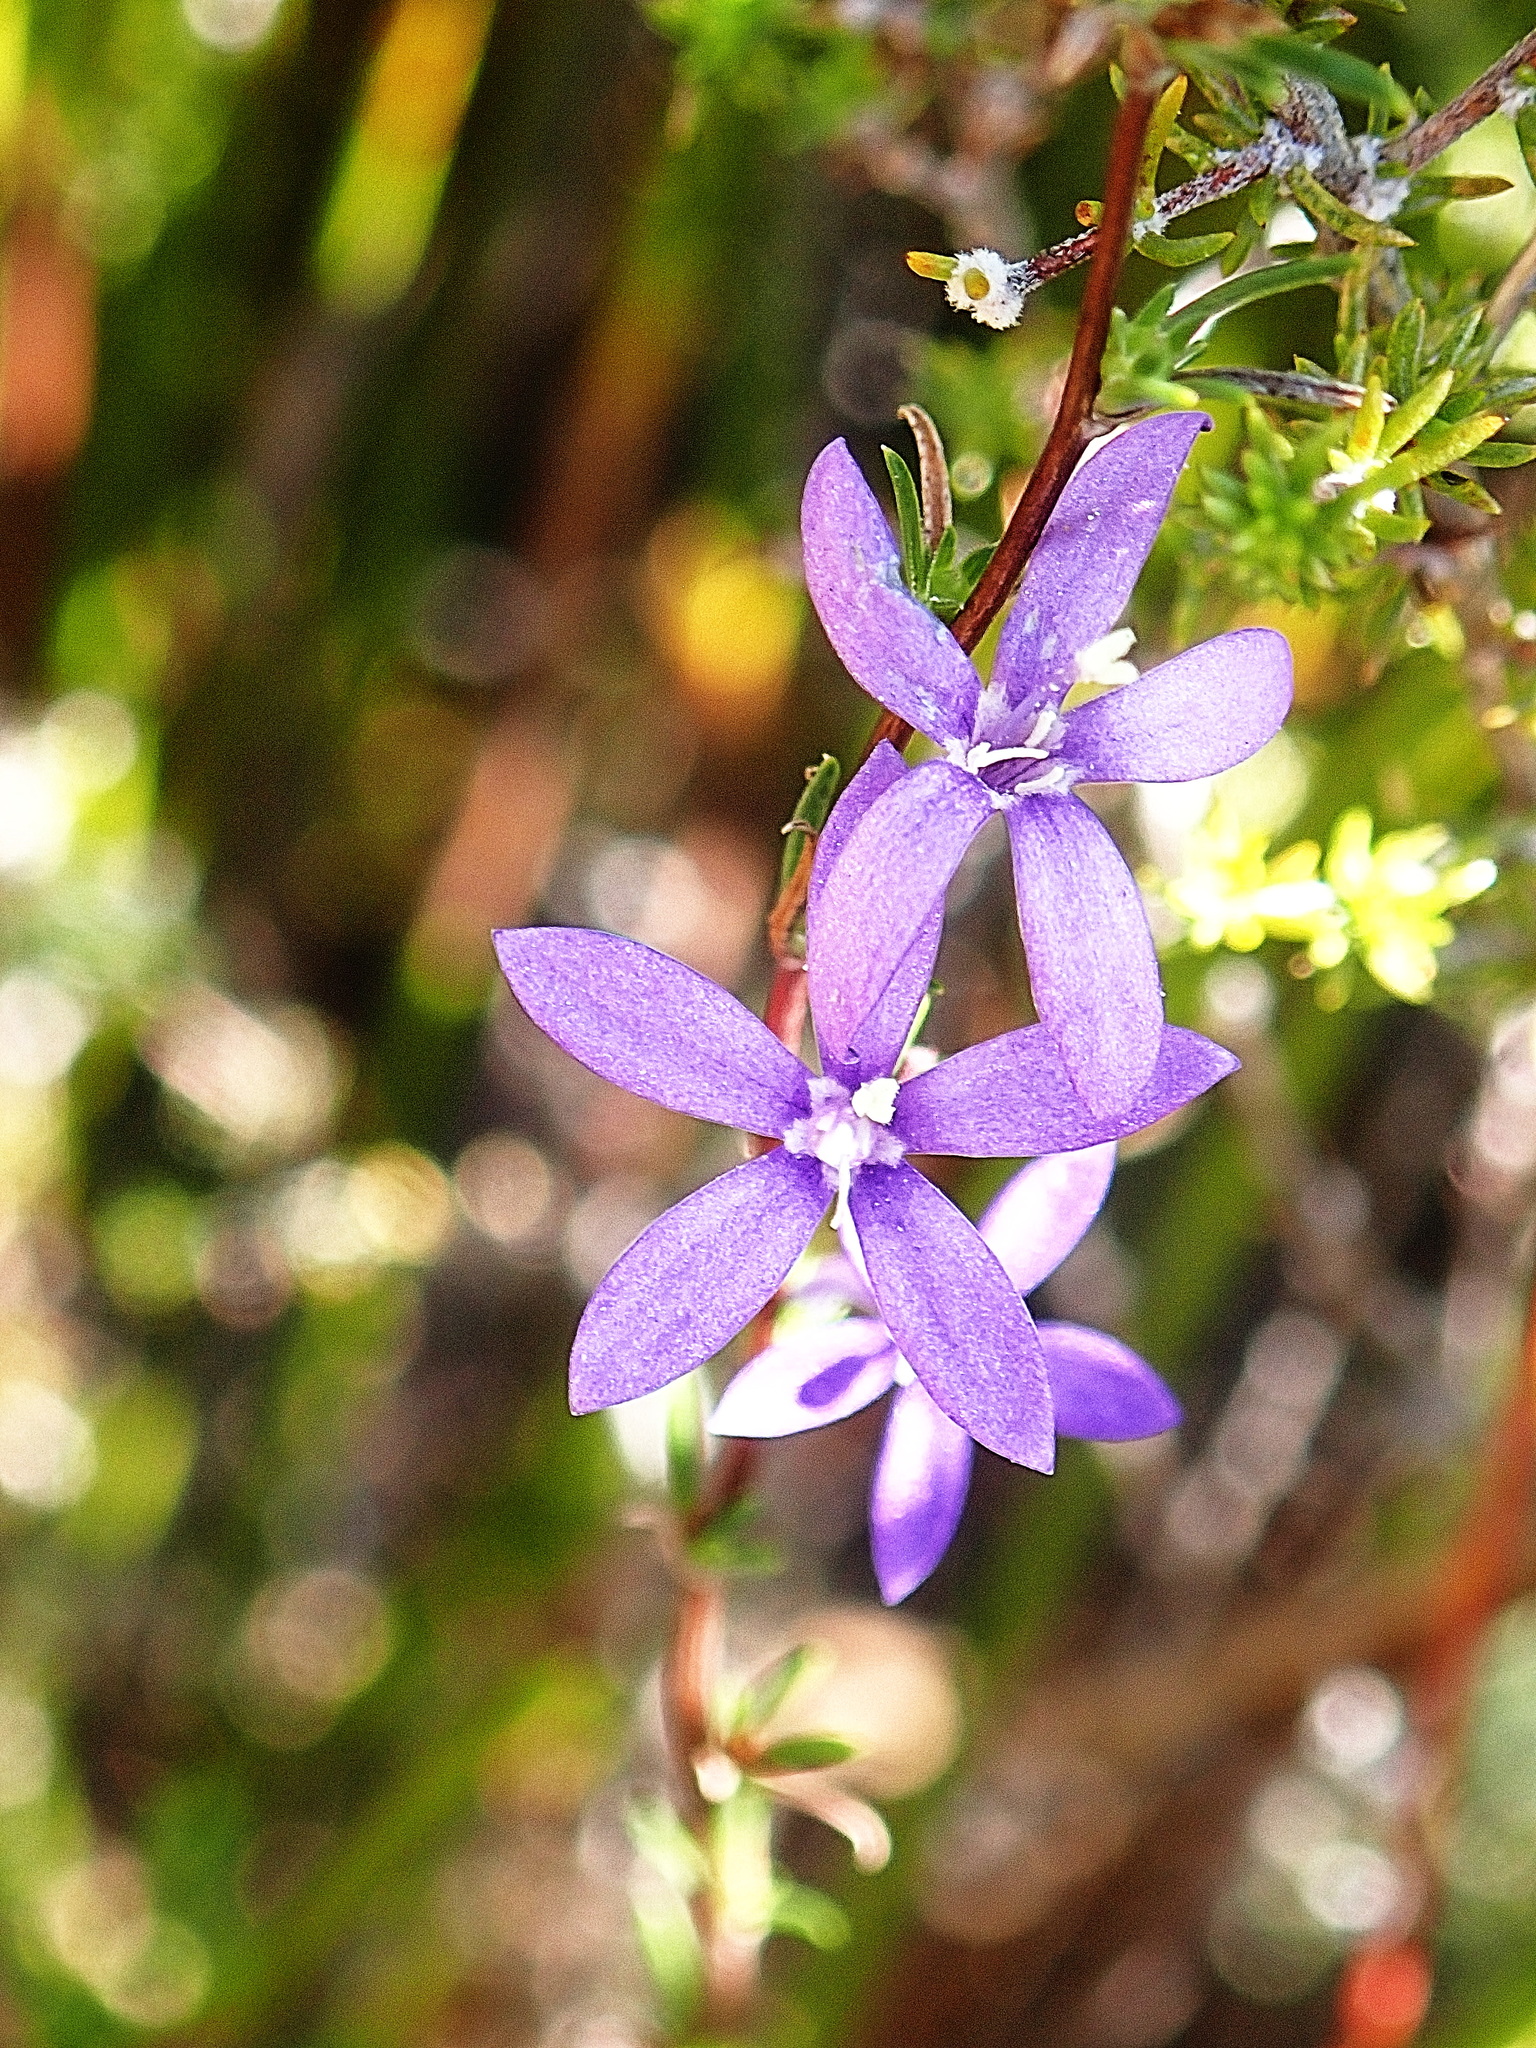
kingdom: Plantae
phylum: Tracheophyta
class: Magnoliopsida
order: Asterales
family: Campanulaceae
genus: Theilera
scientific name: Theilera guthriei
